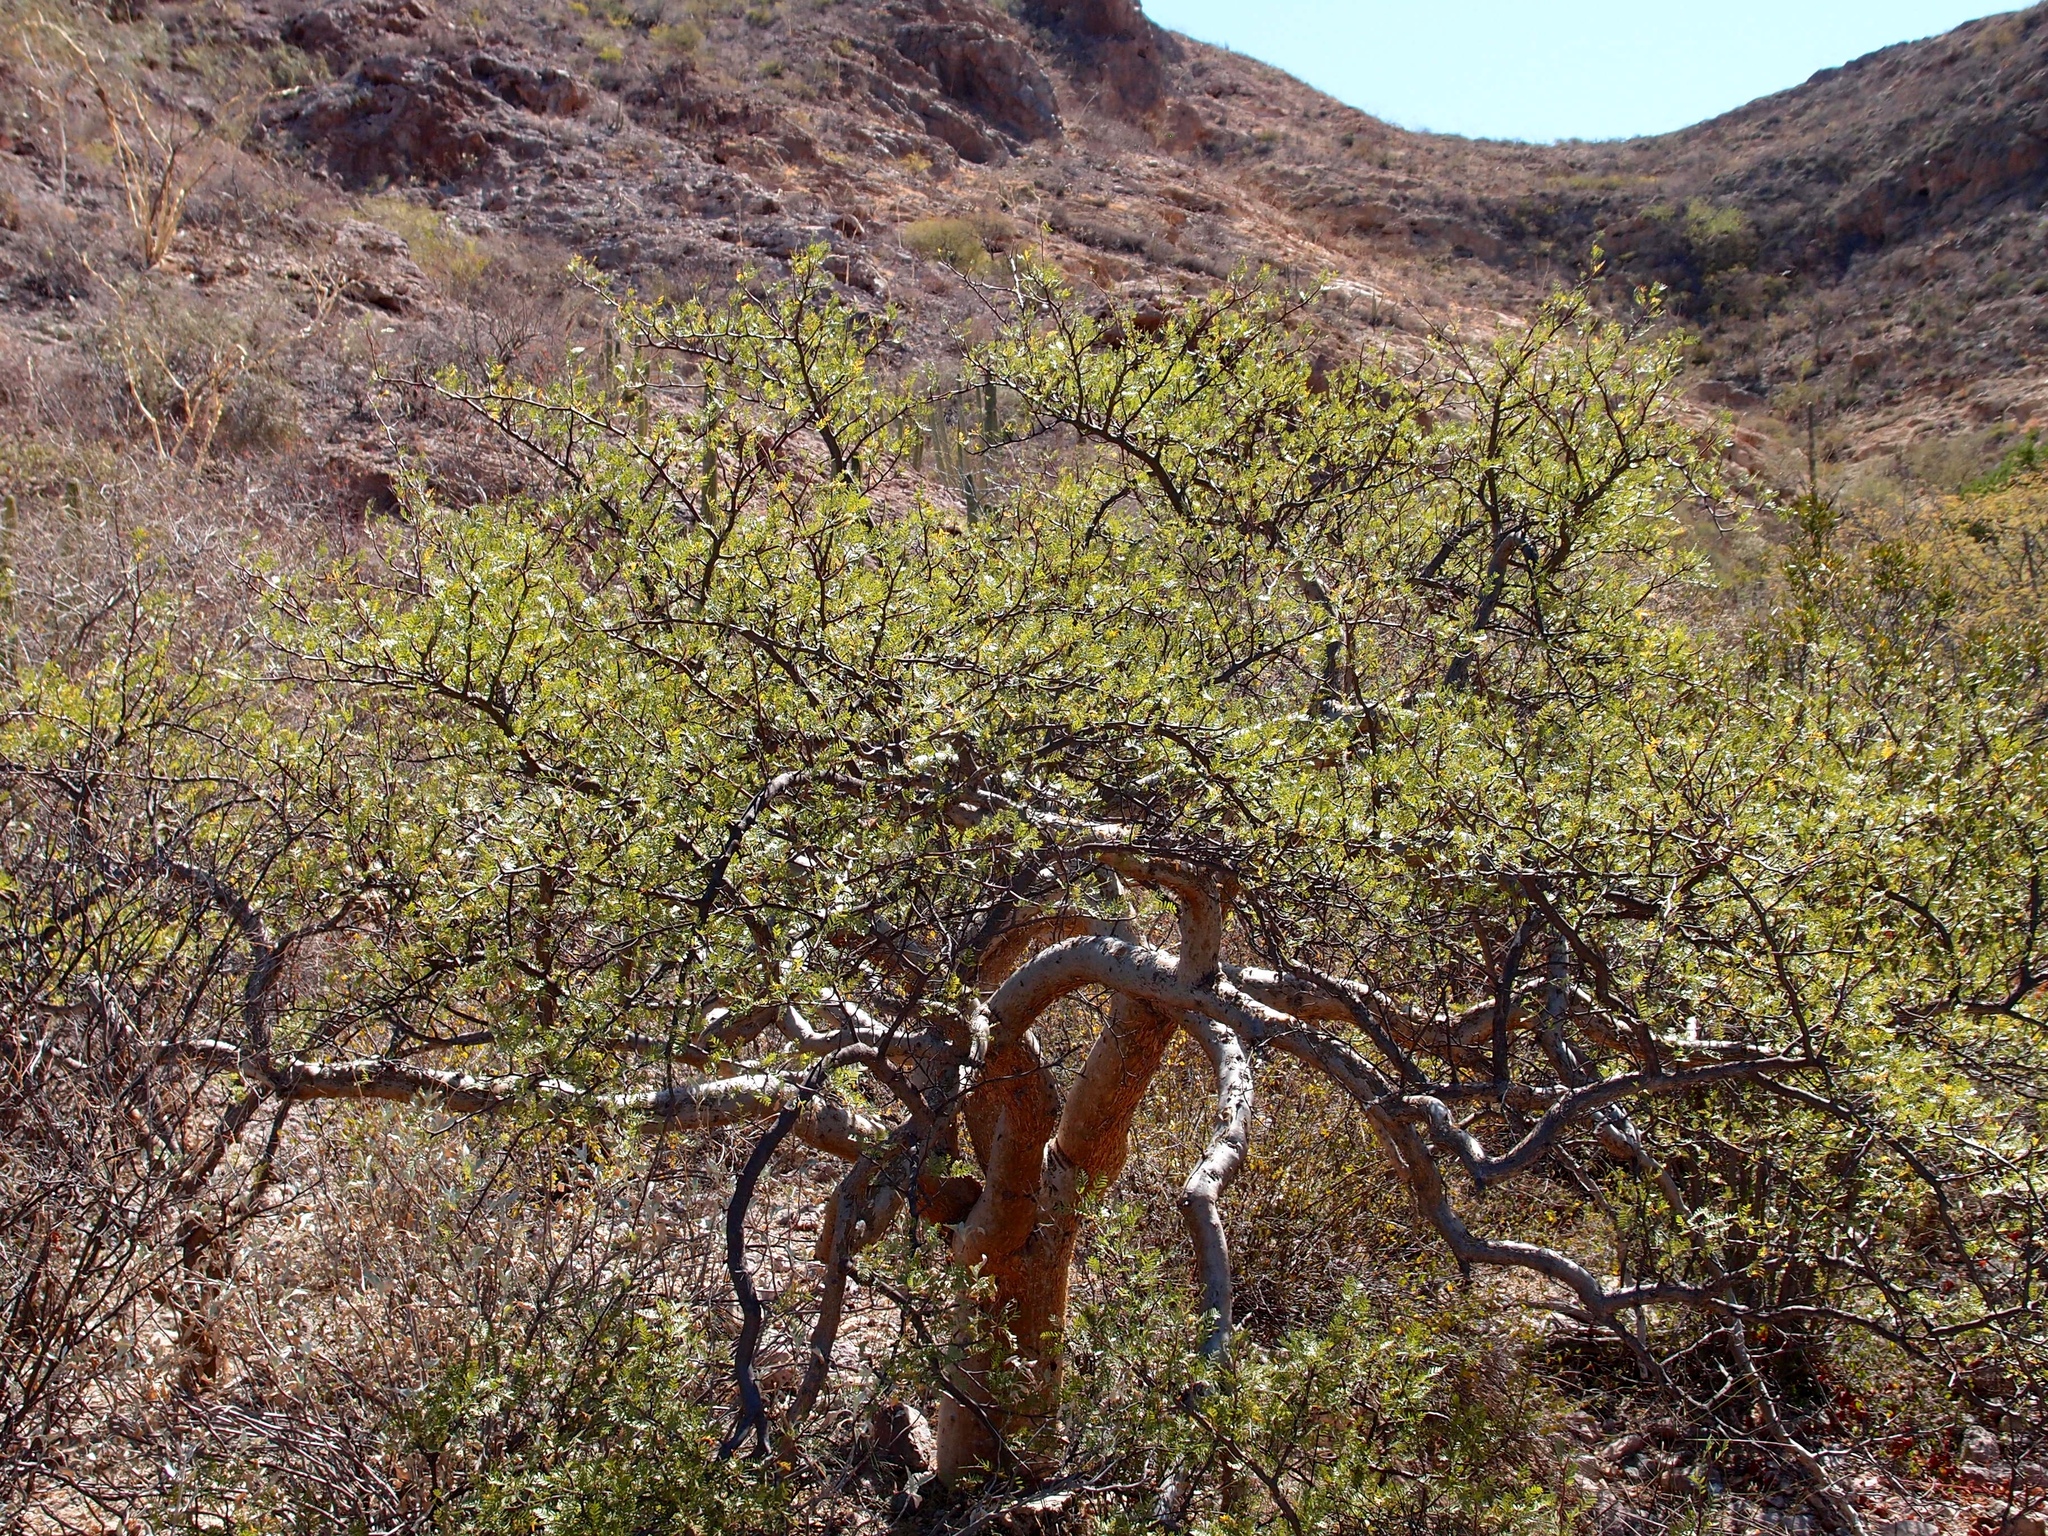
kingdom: Plantae
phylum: Tracheophyta
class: Magnoliopsida
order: Sapindales
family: Burseraceae
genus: Bursera
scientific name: Bursera microphylla
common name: Elephant tree
